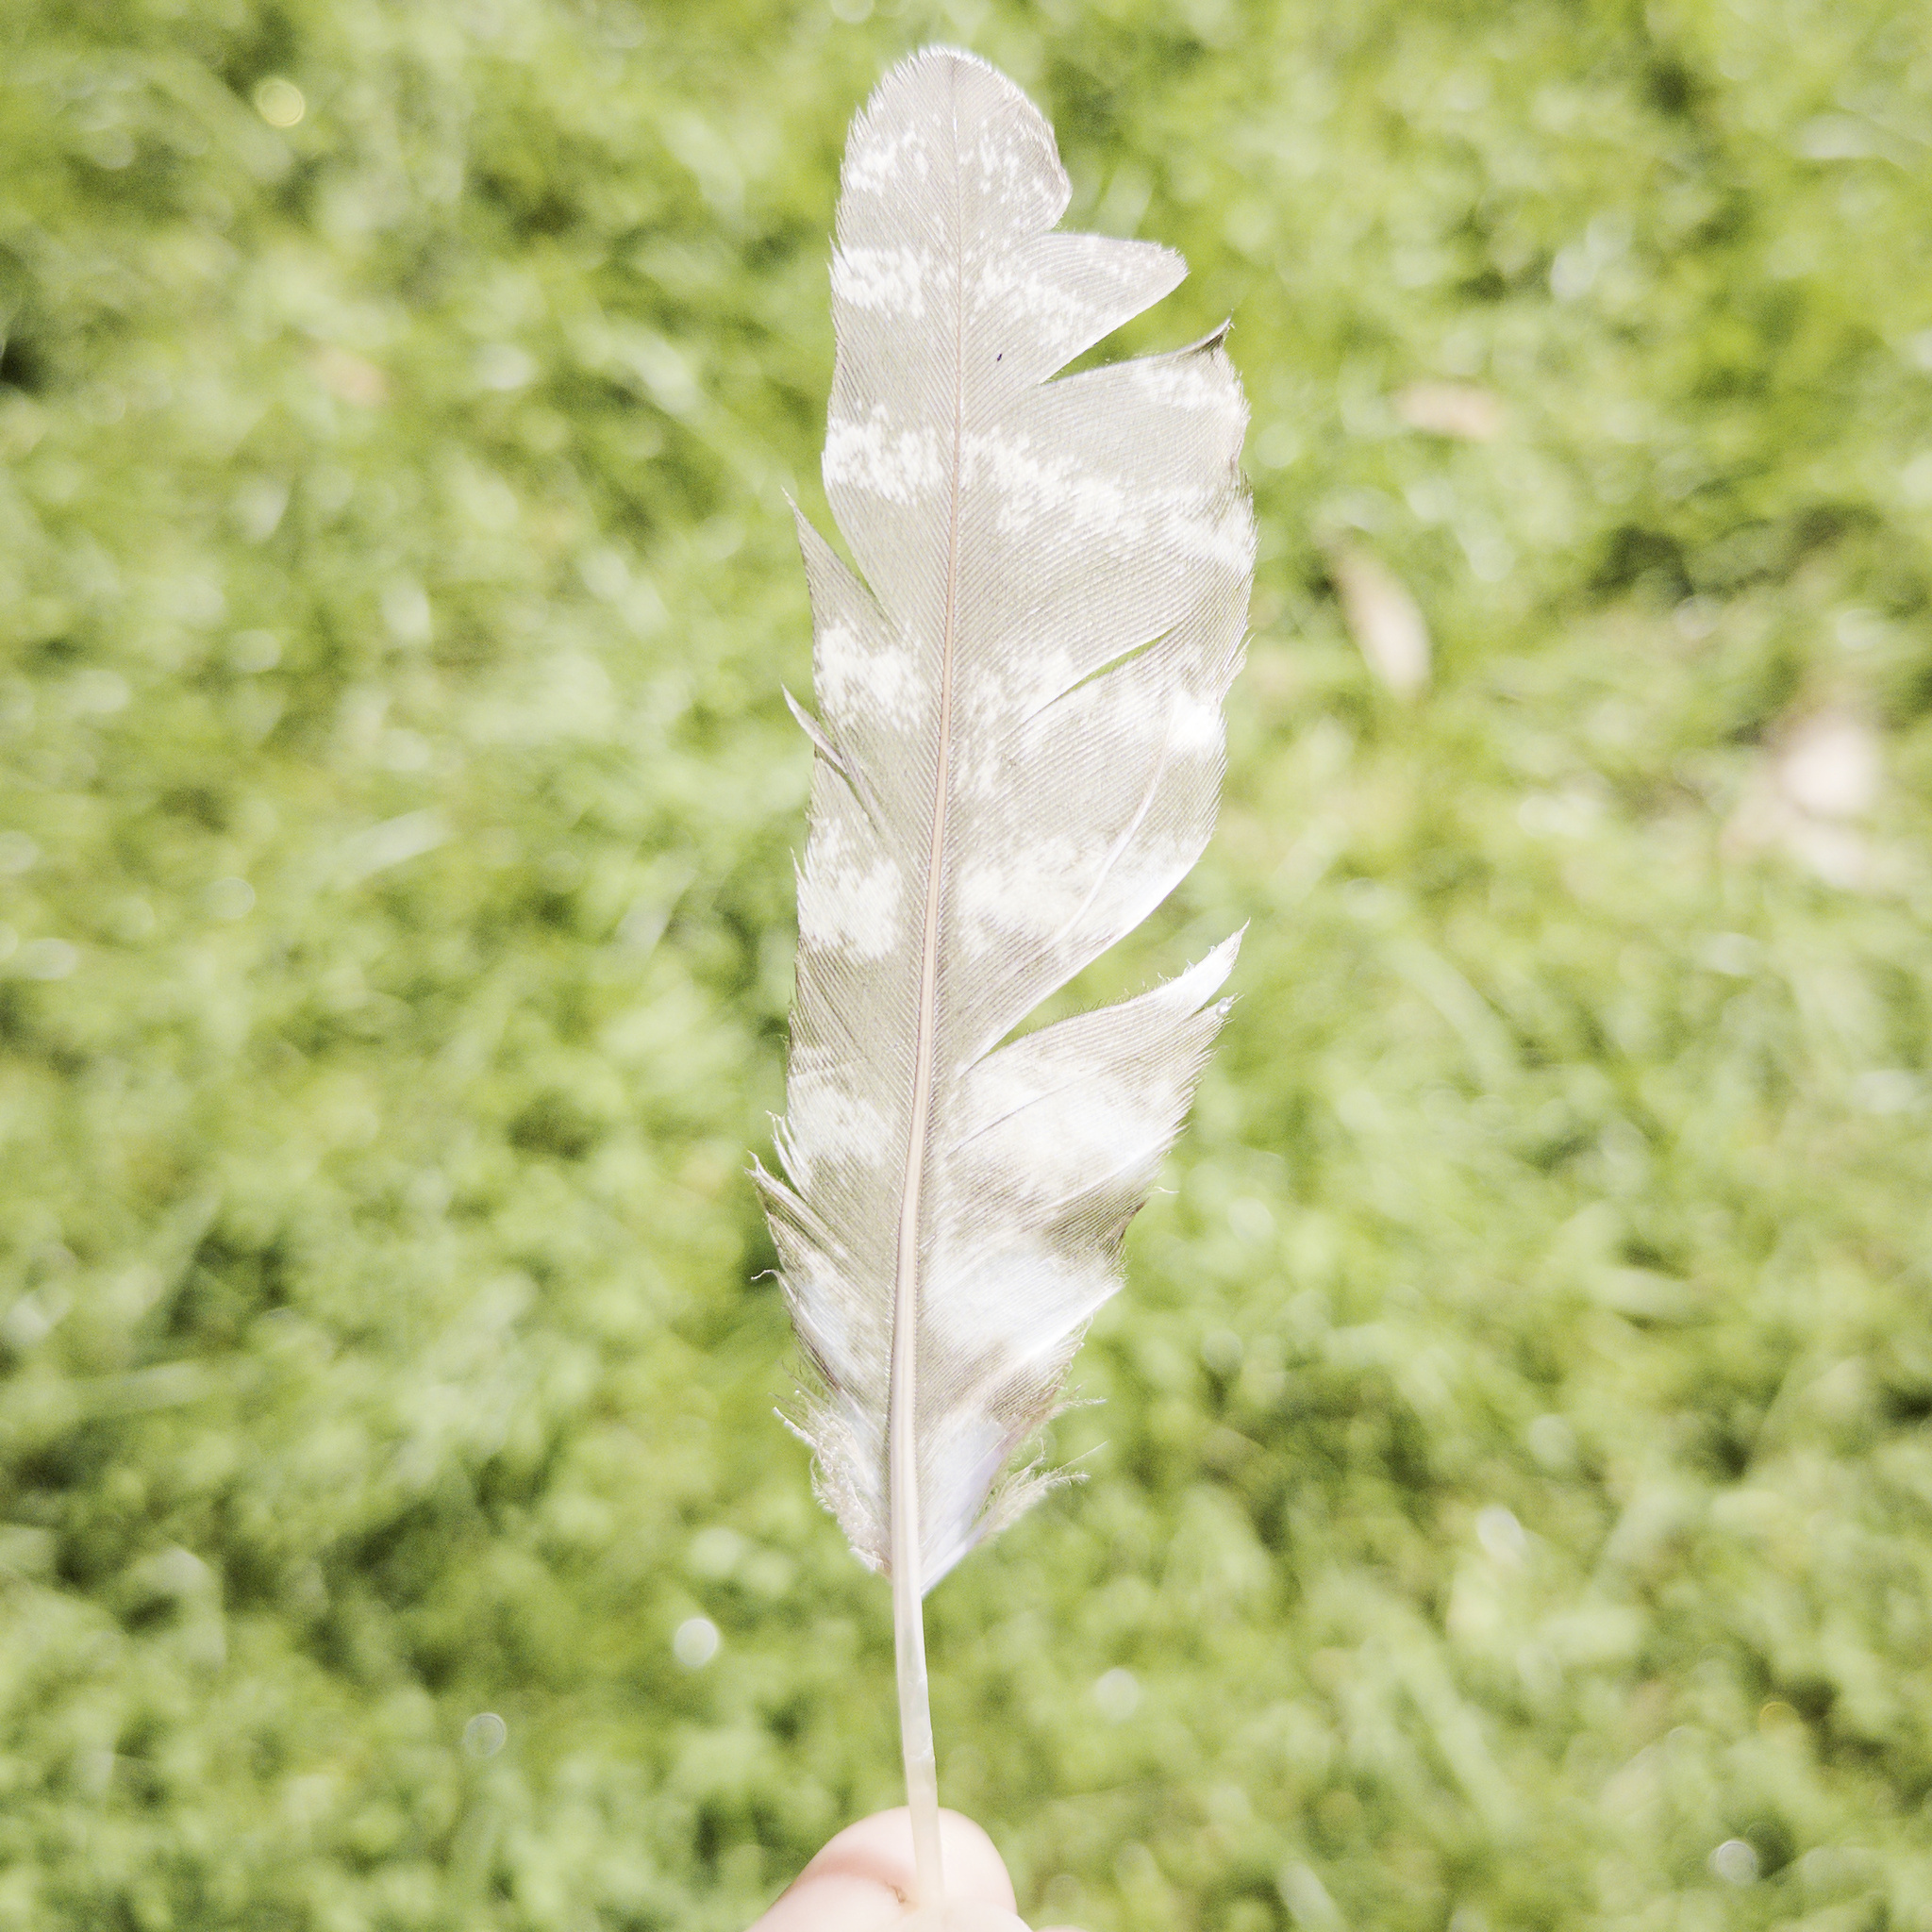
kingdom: Animalia
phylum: Chordata
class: Aves
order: Caprimulgiformes
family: Podargidae
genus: Podargus
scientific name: Podargus strigoides
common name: Tawny frogmouth
